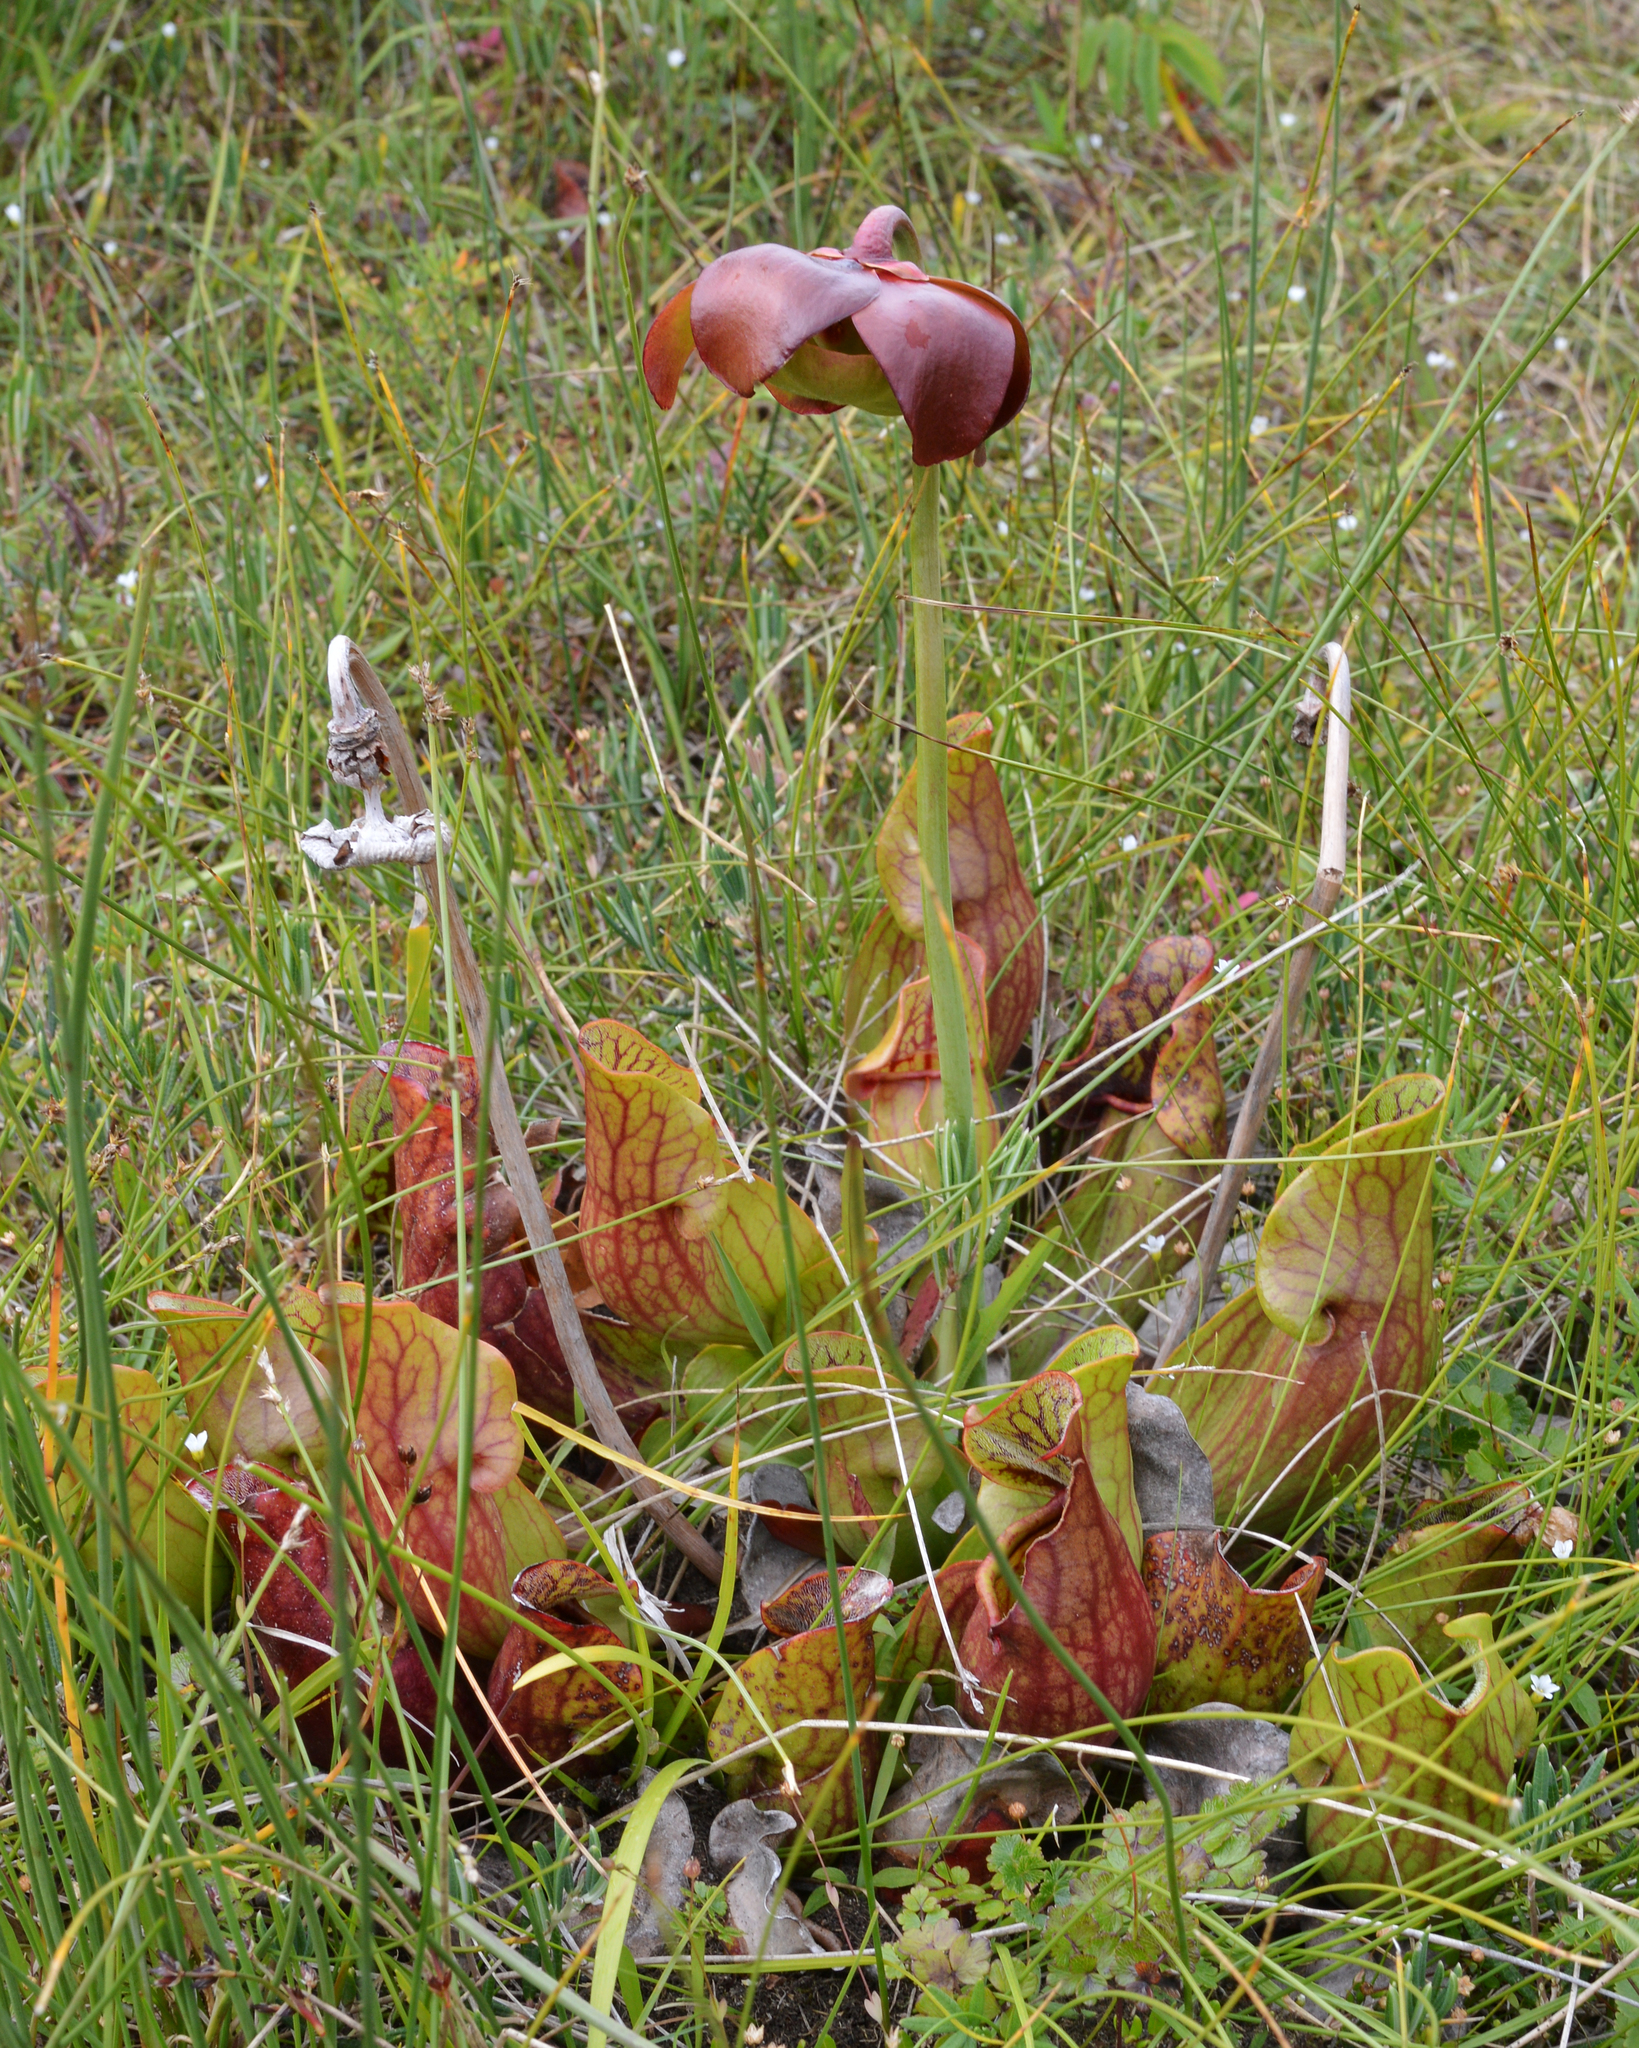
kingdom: Plantae
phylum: Tracheophyta
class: Magnoliopsida
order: Ericales
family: Sarraceniaceae
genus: Sarracenia
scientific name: Sarracenia purpurea
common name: Pitcherplant
